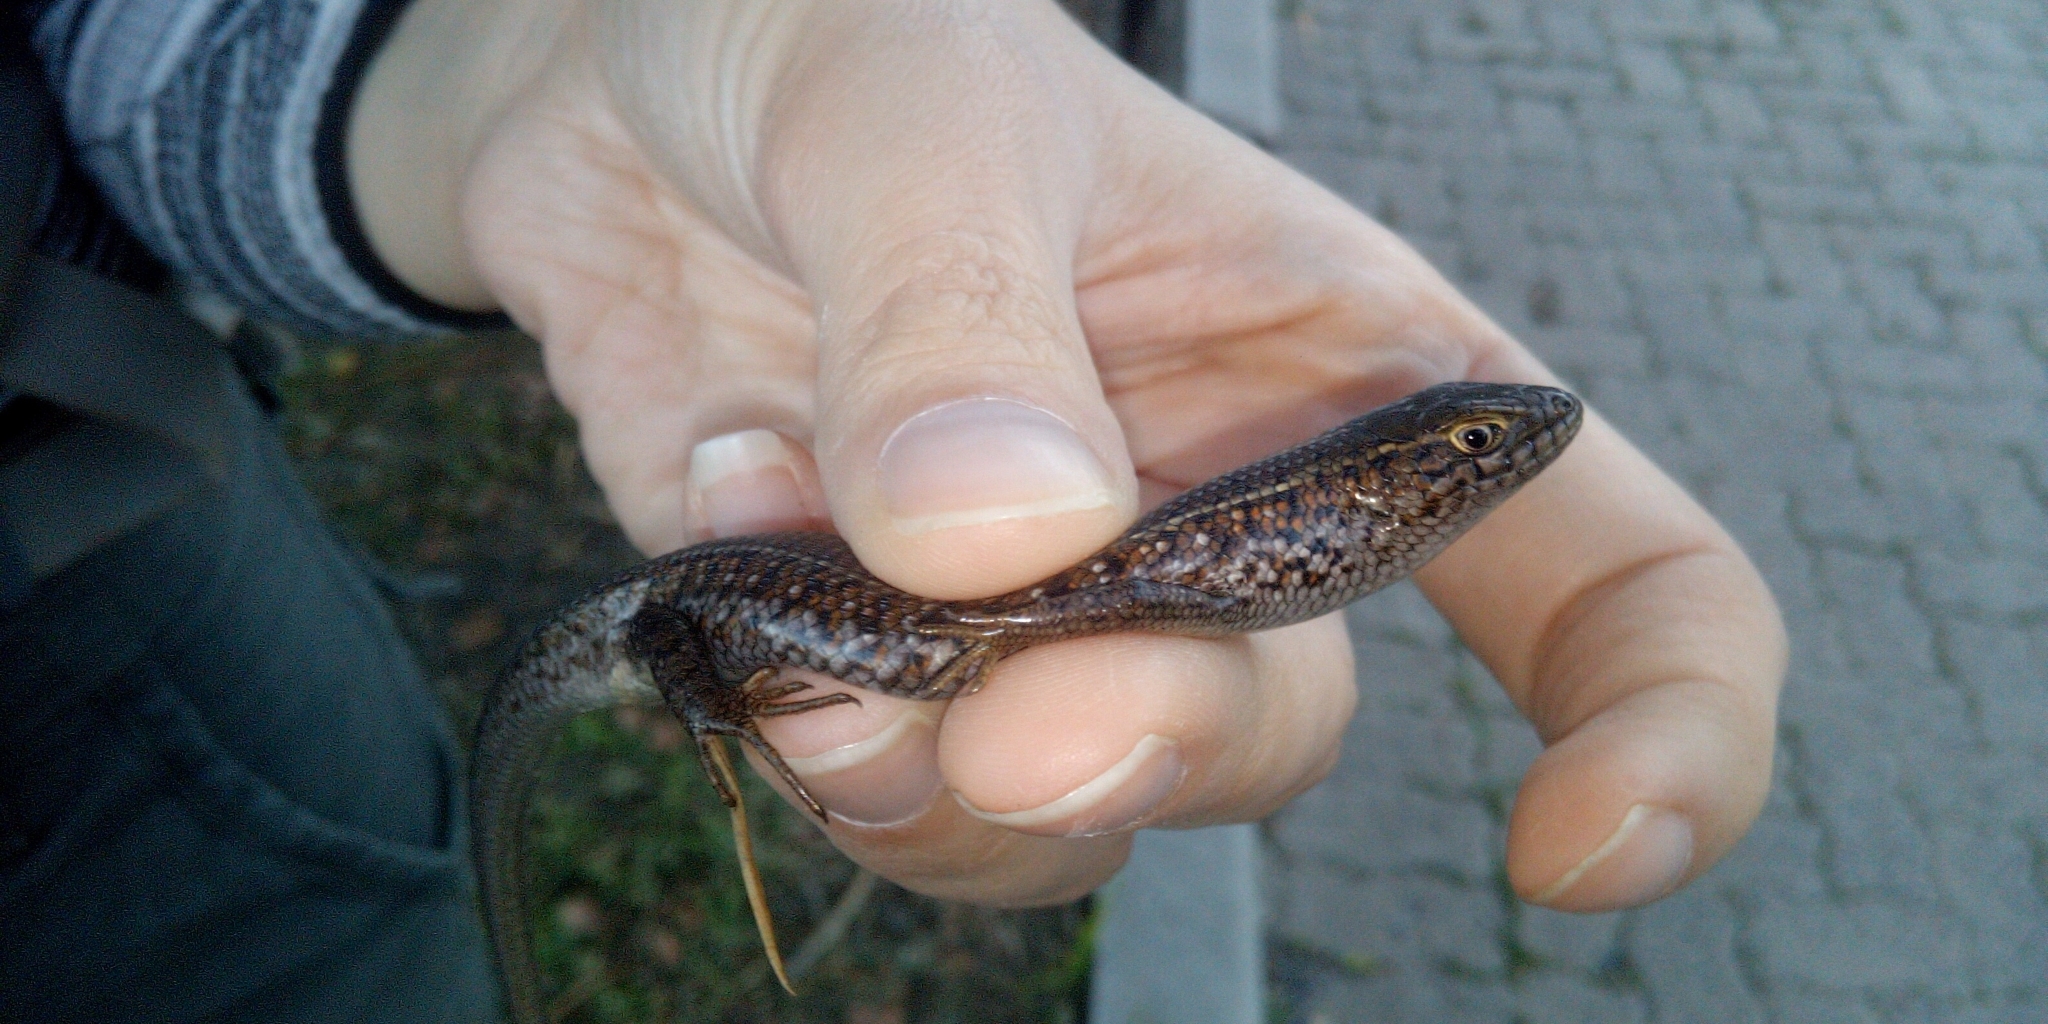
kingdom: Animalia
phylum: Chordata
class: Squamata
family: Scincidae
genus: Trachylepis
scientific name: Trachylepis capensis
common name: Cape skink
